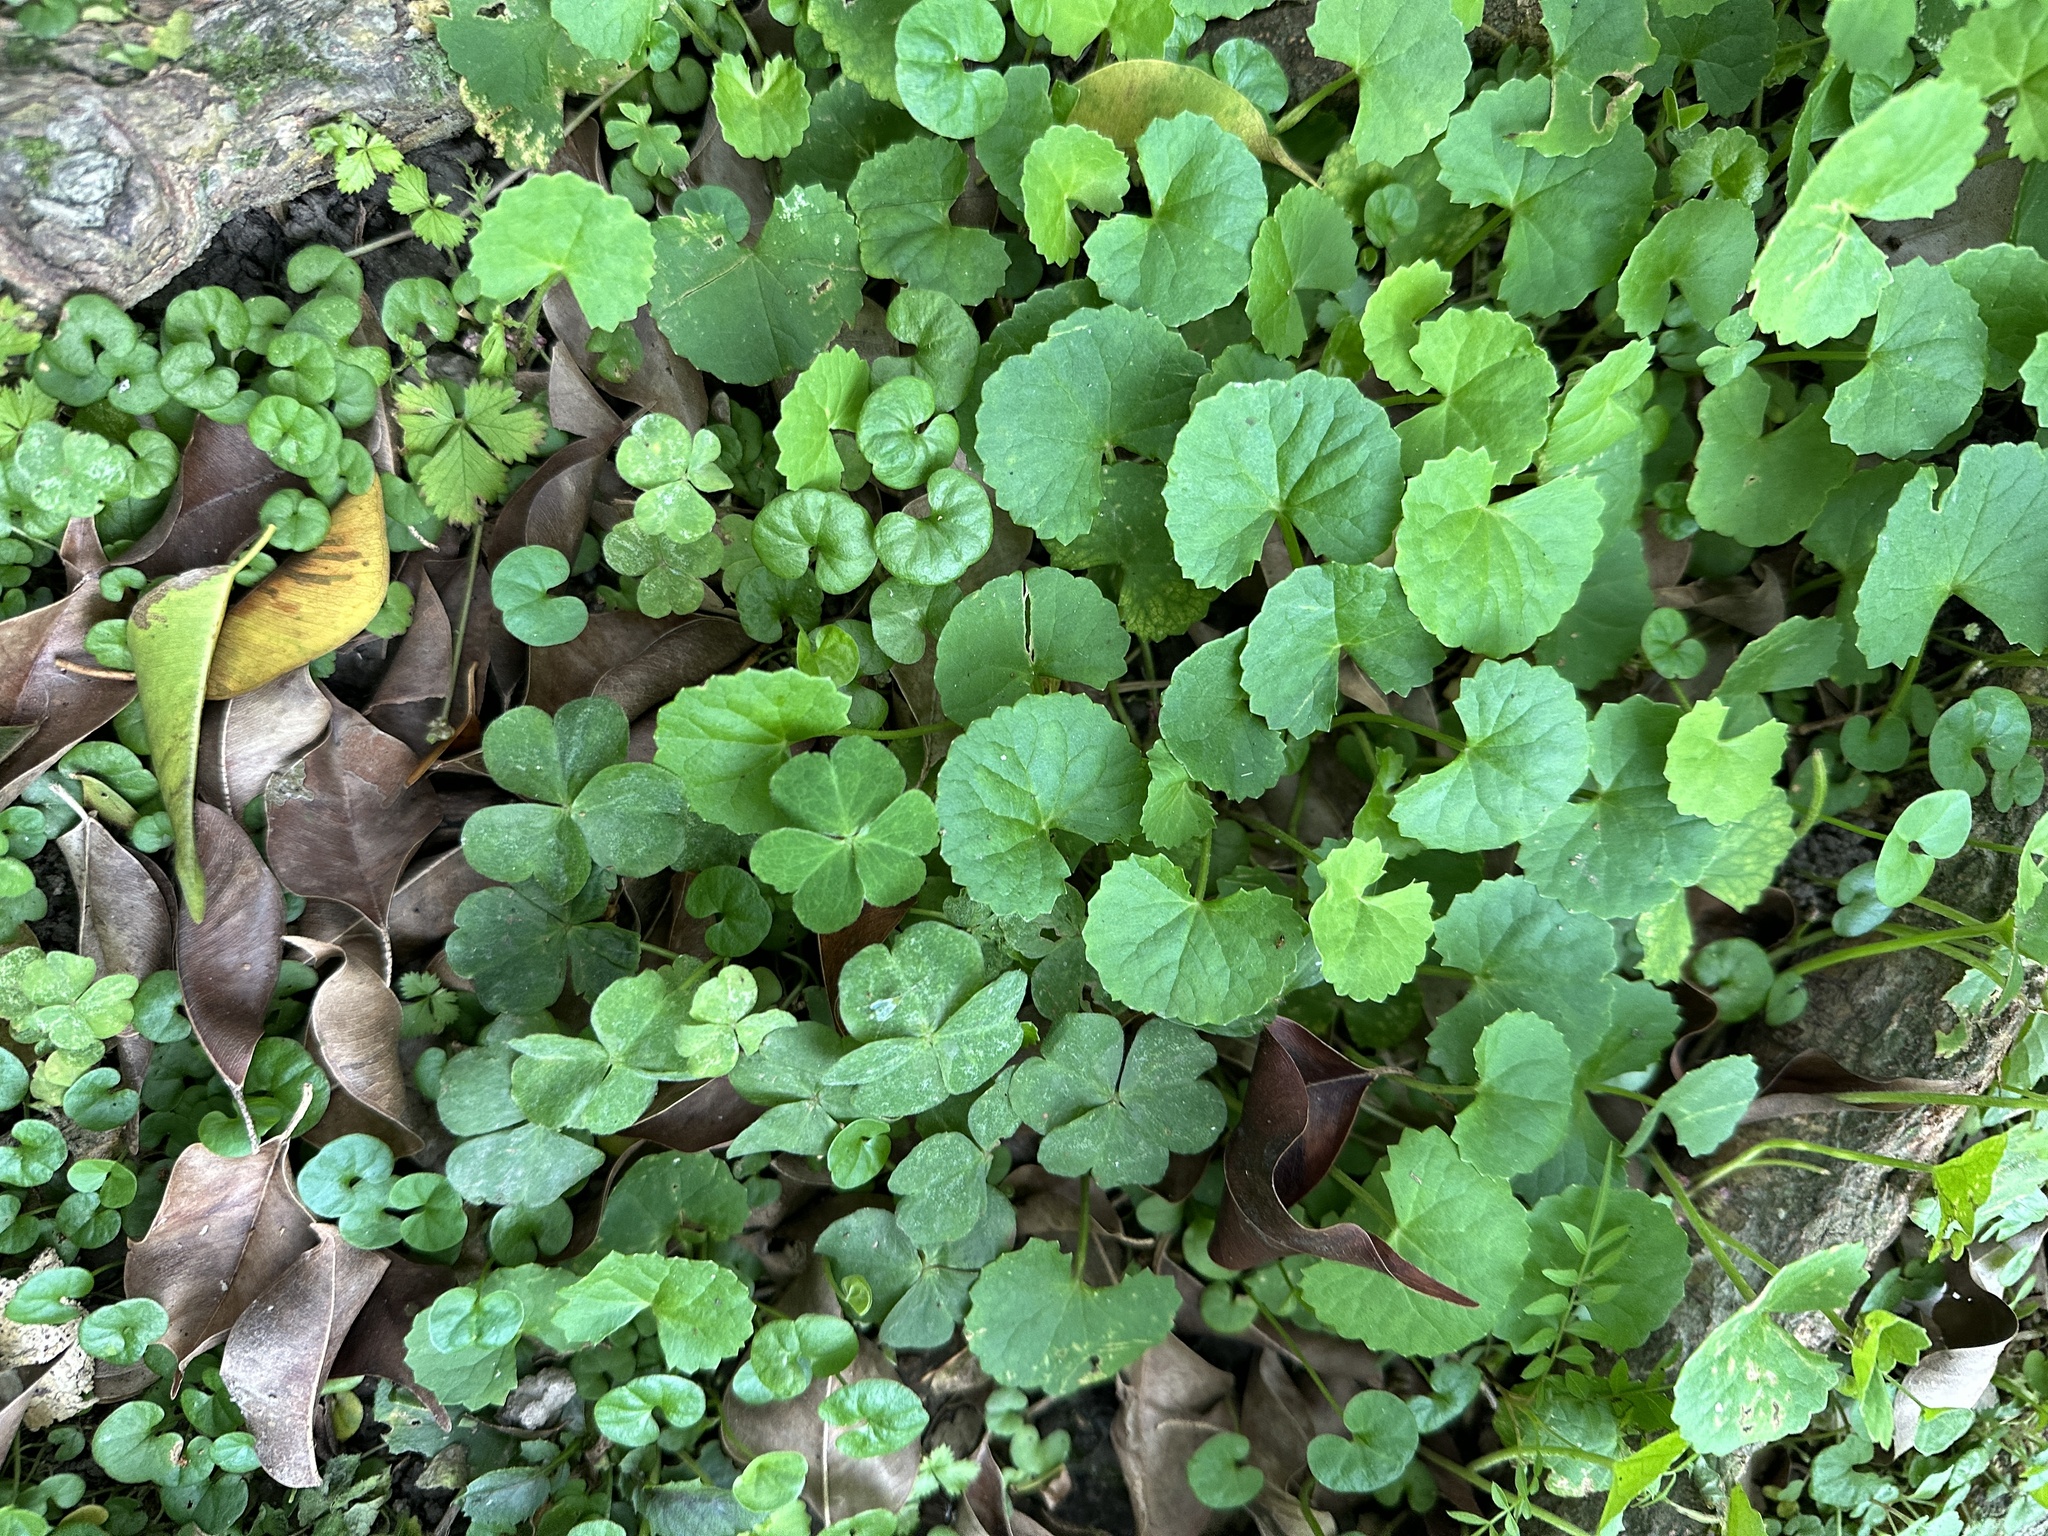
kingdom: Plantae
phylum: Tracheophyta
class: Magnoliopsida
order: Apiales
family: Apiaceae
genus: Centella
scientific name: Centella asiatica
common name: Spadeleaf
